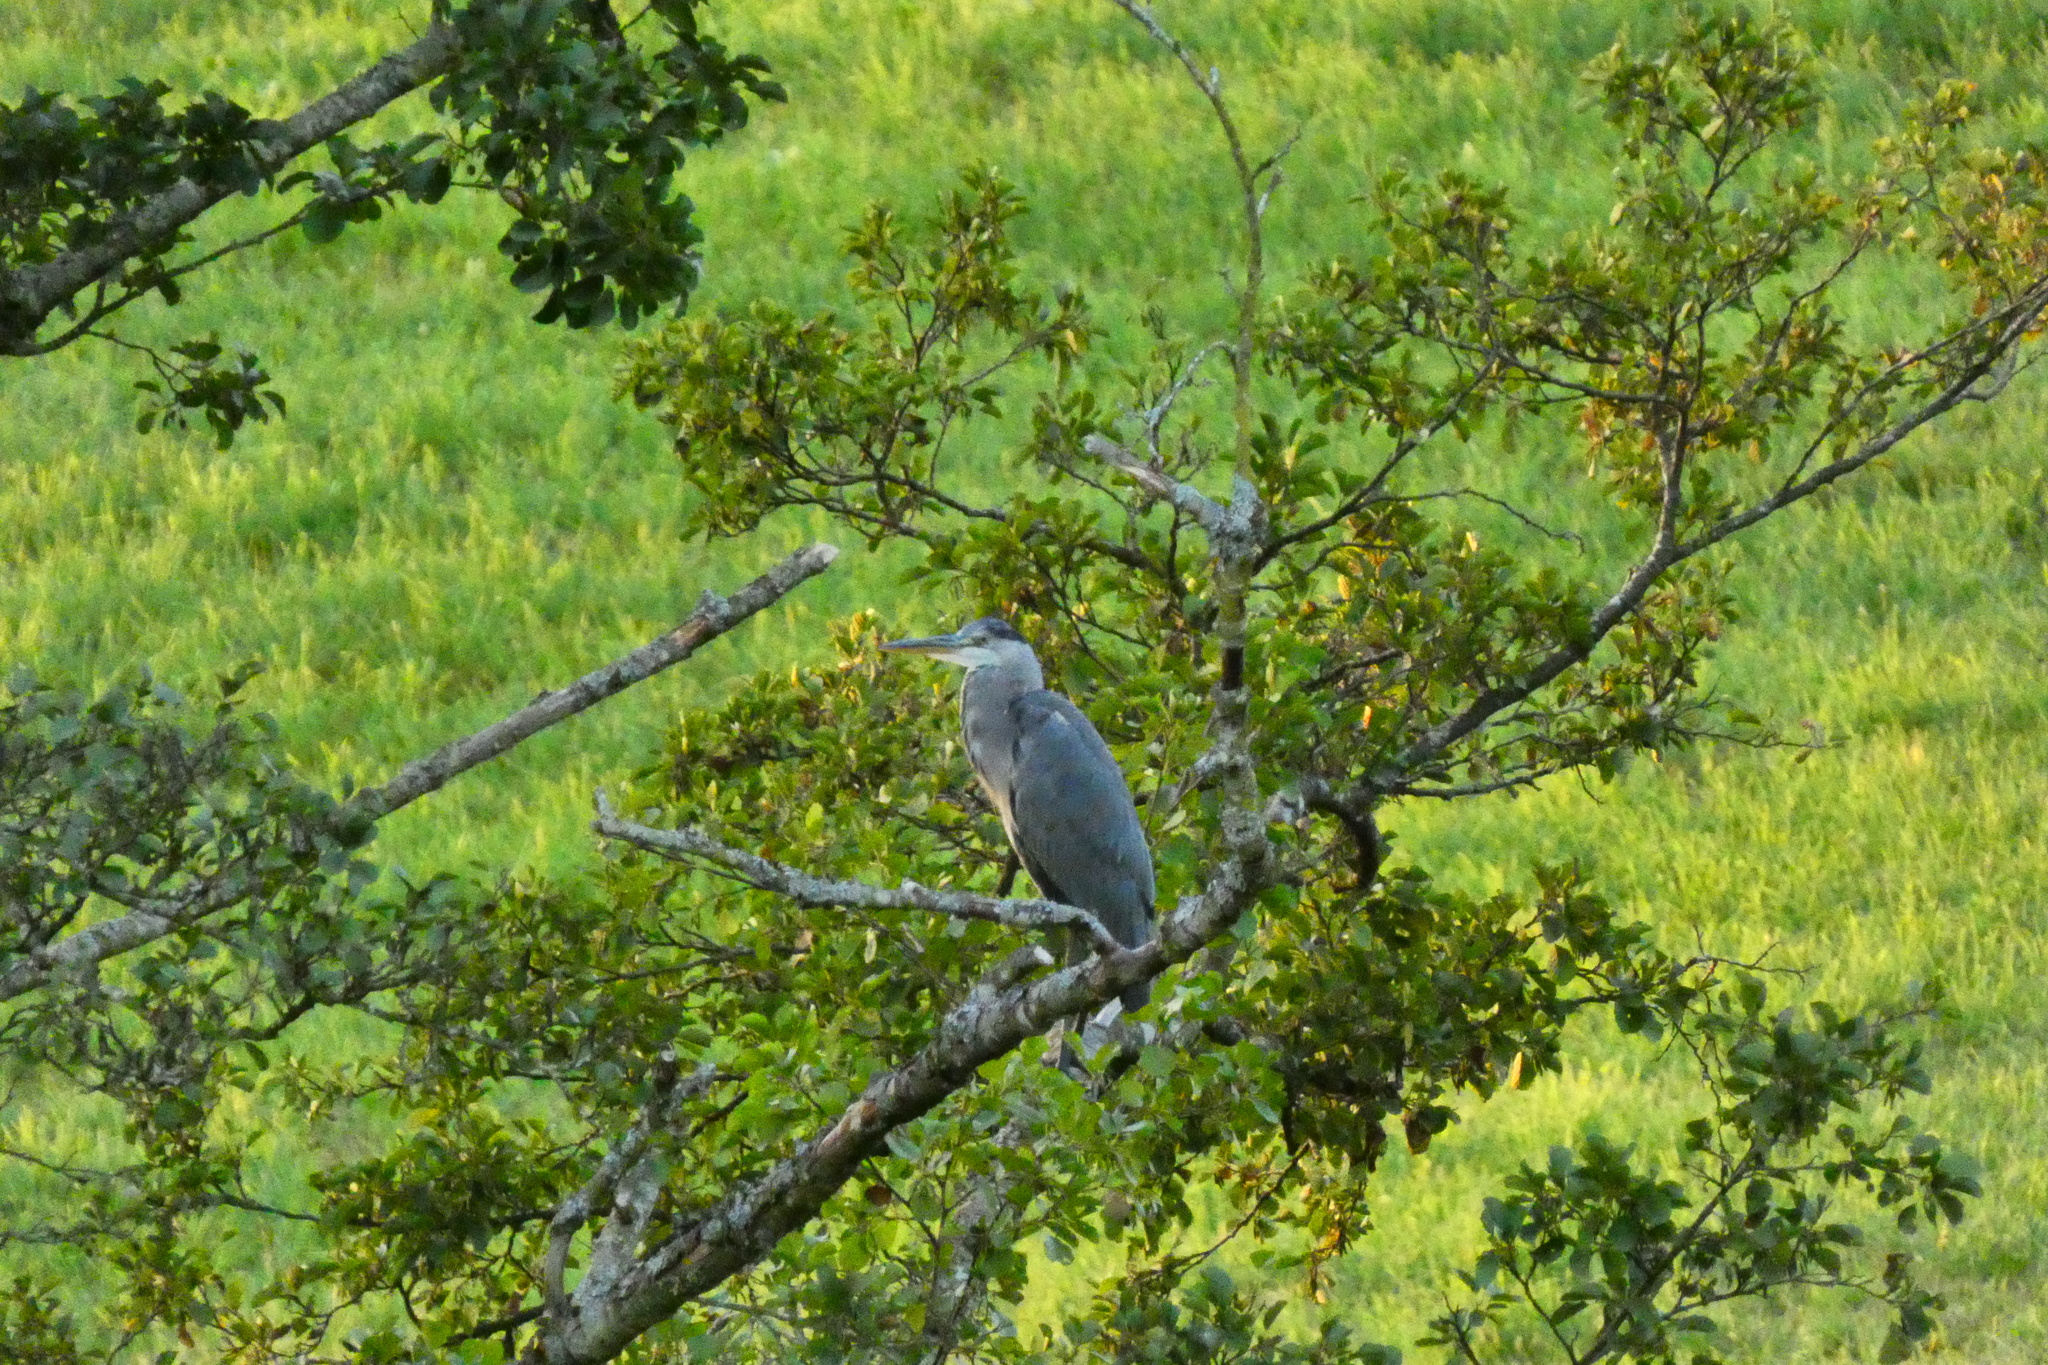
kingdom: Animalia
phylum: Chordata
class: Aves
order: Pelecaniformes
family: Ardeidae
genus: Ardea
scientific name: Ardea cinerea
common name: Grey heron
